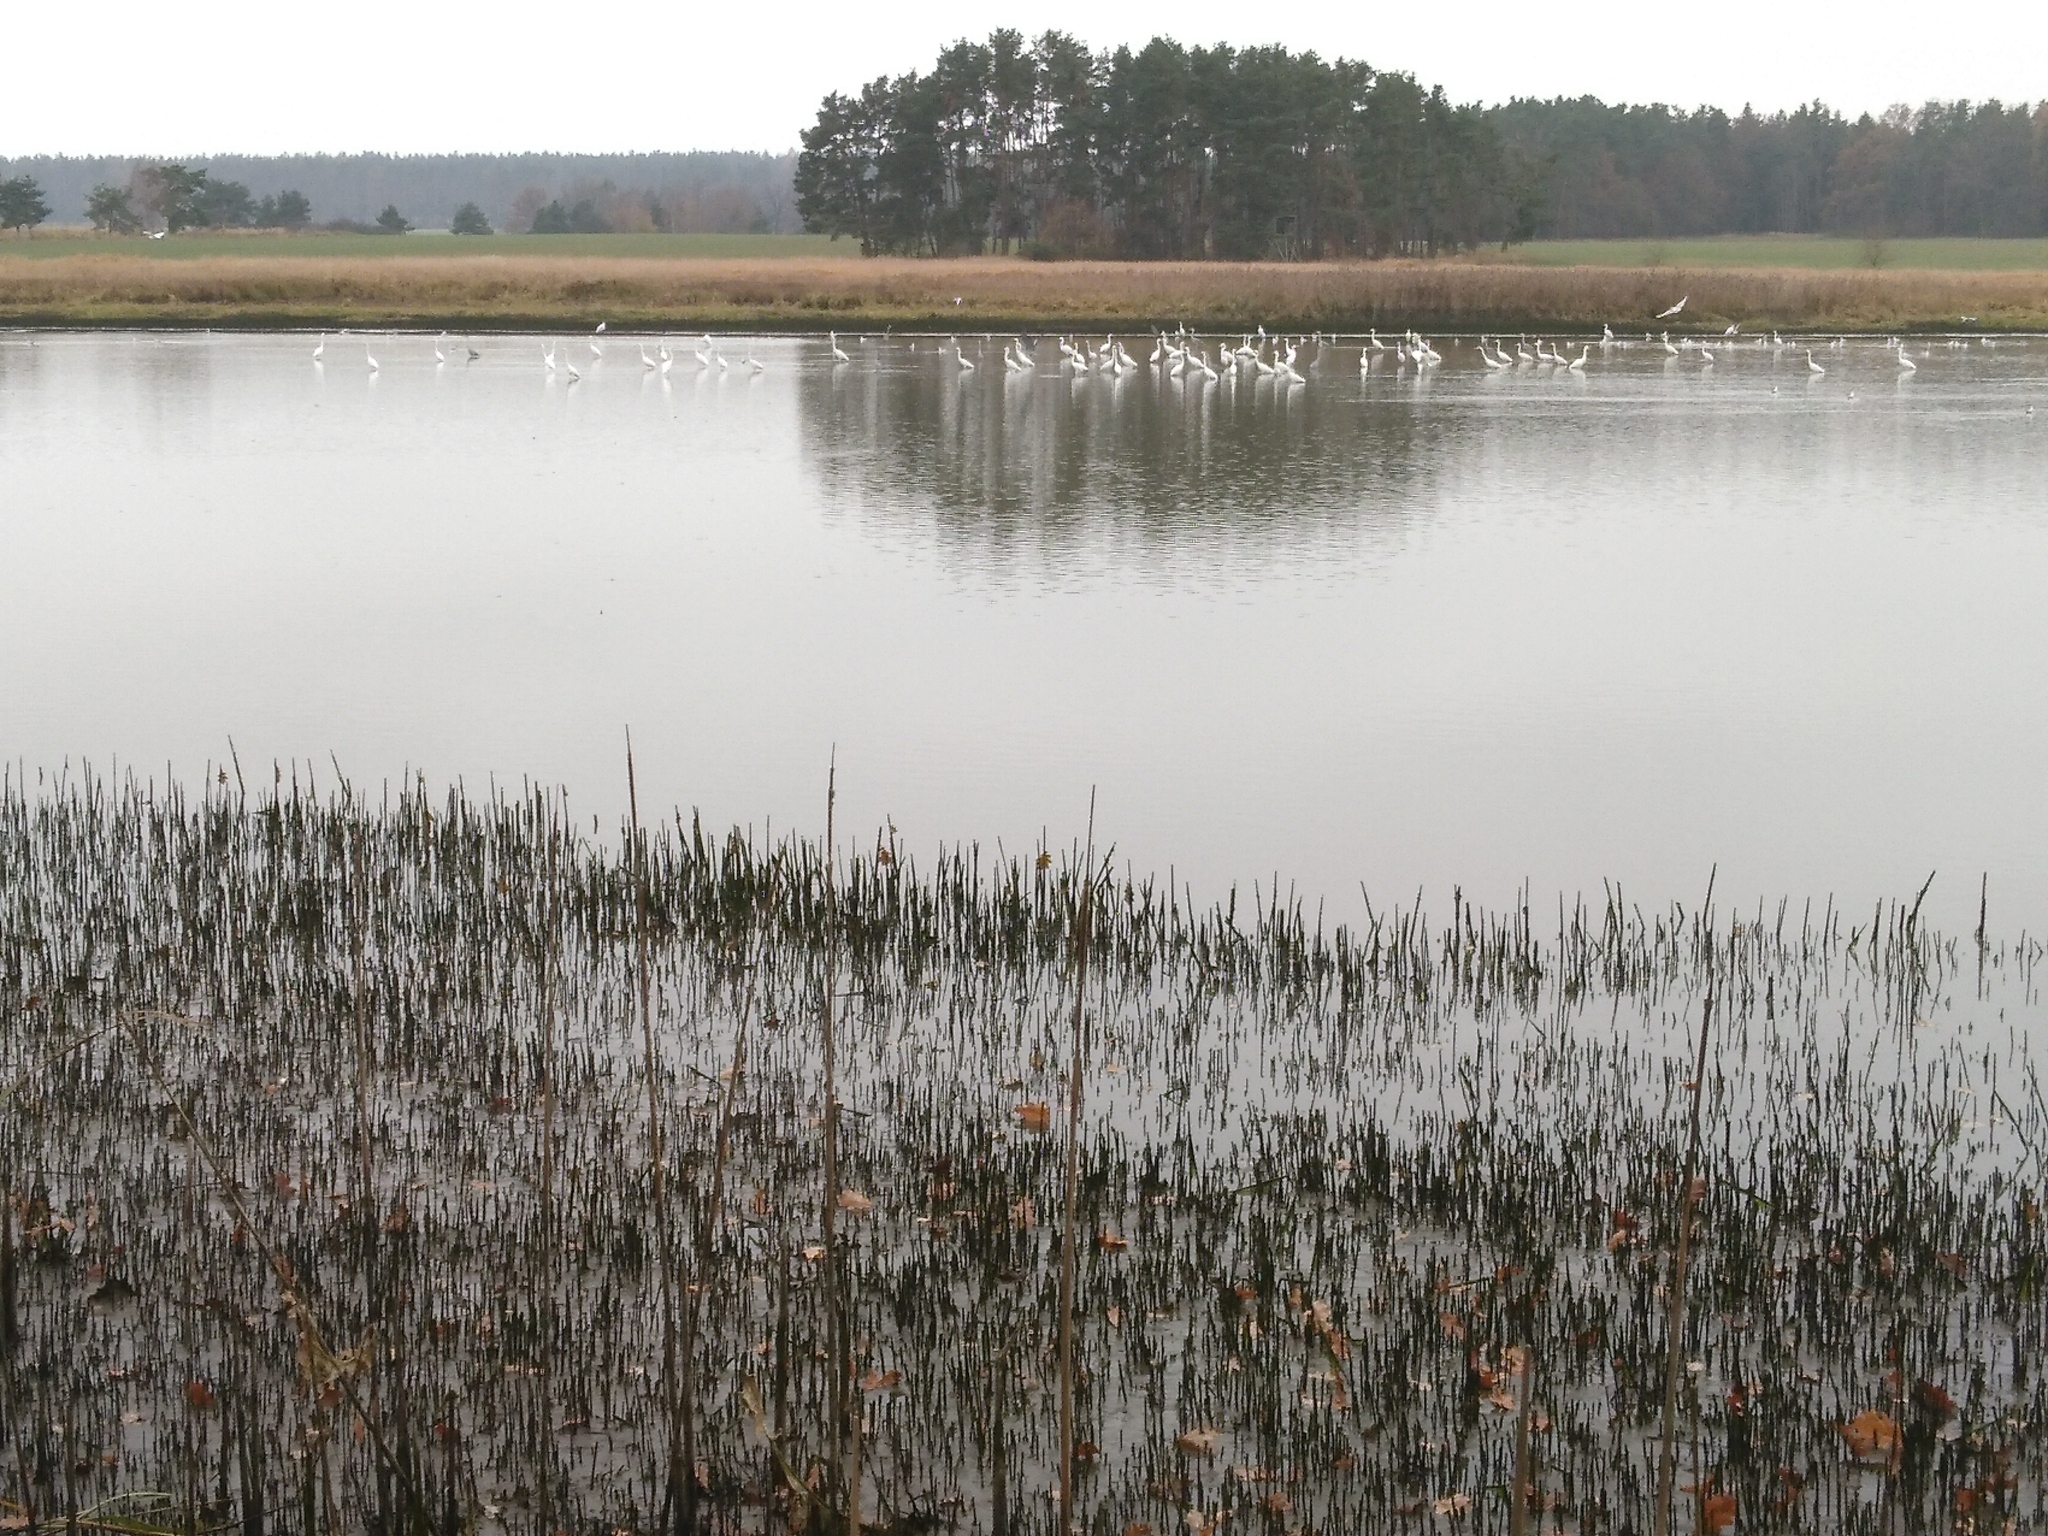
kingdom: Animalia
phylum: Chordata
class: Aves
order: Pelecaniformes
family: Ardeidae
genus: Ardea
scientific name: Ardea alba
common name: Great egret
